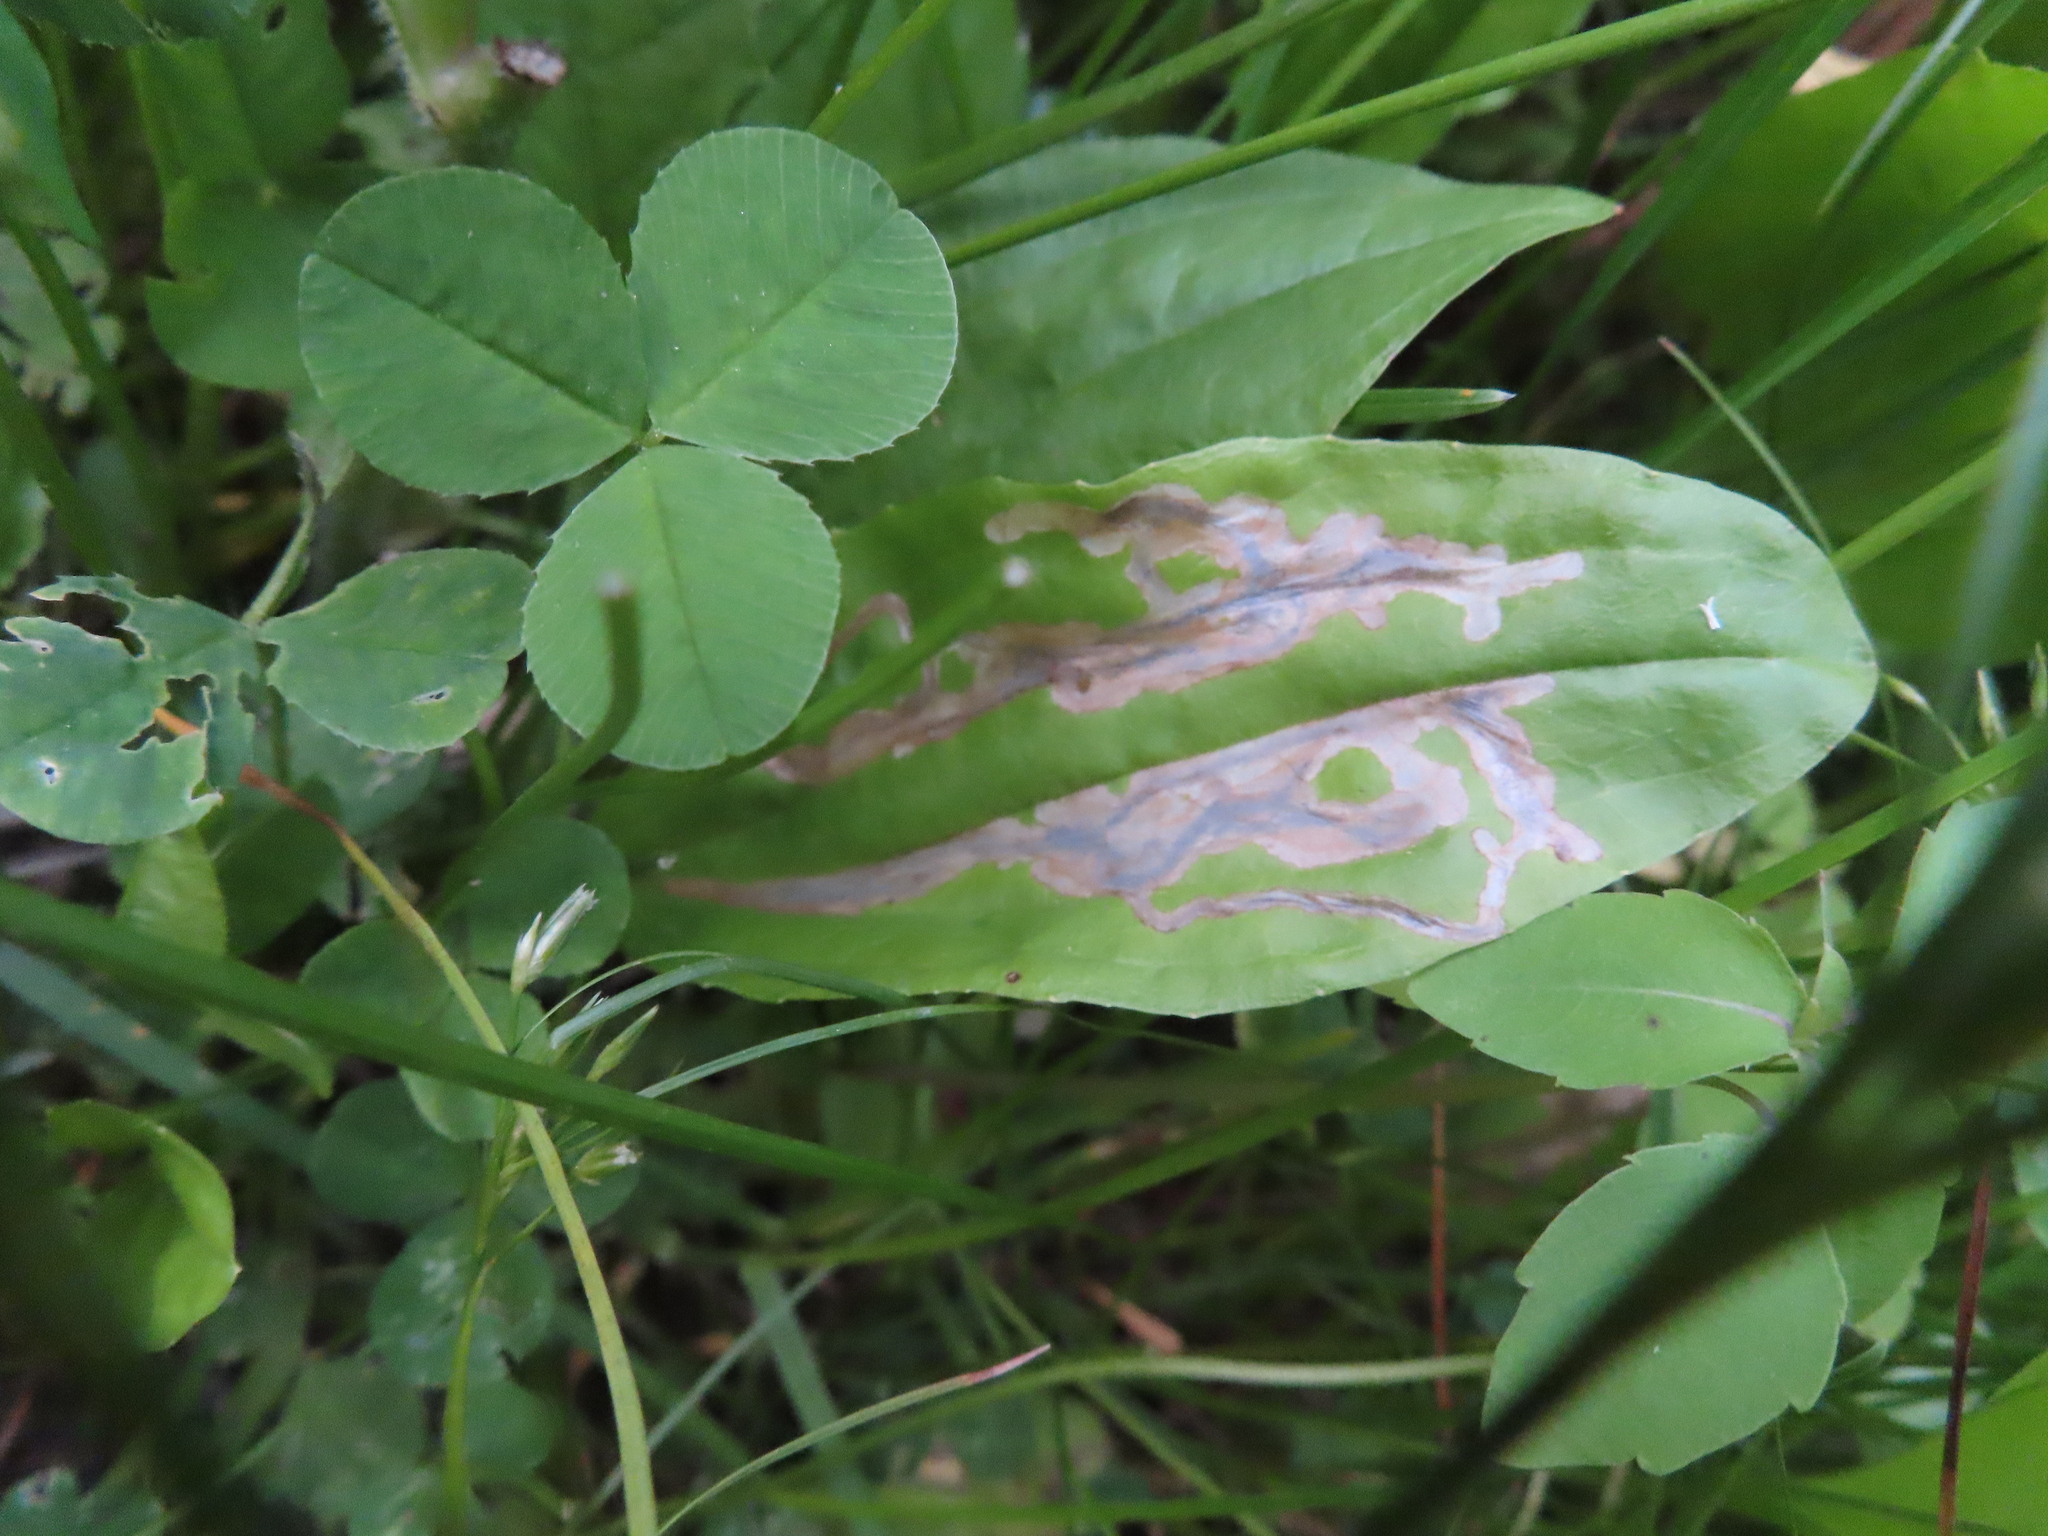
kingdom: Animalia
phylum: Arthropoda
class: Insecta
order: Coleoptera
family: Chrysomelidae
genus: Dibolia
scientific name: Dibolia borealis
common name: Northern plantain flea beetle
